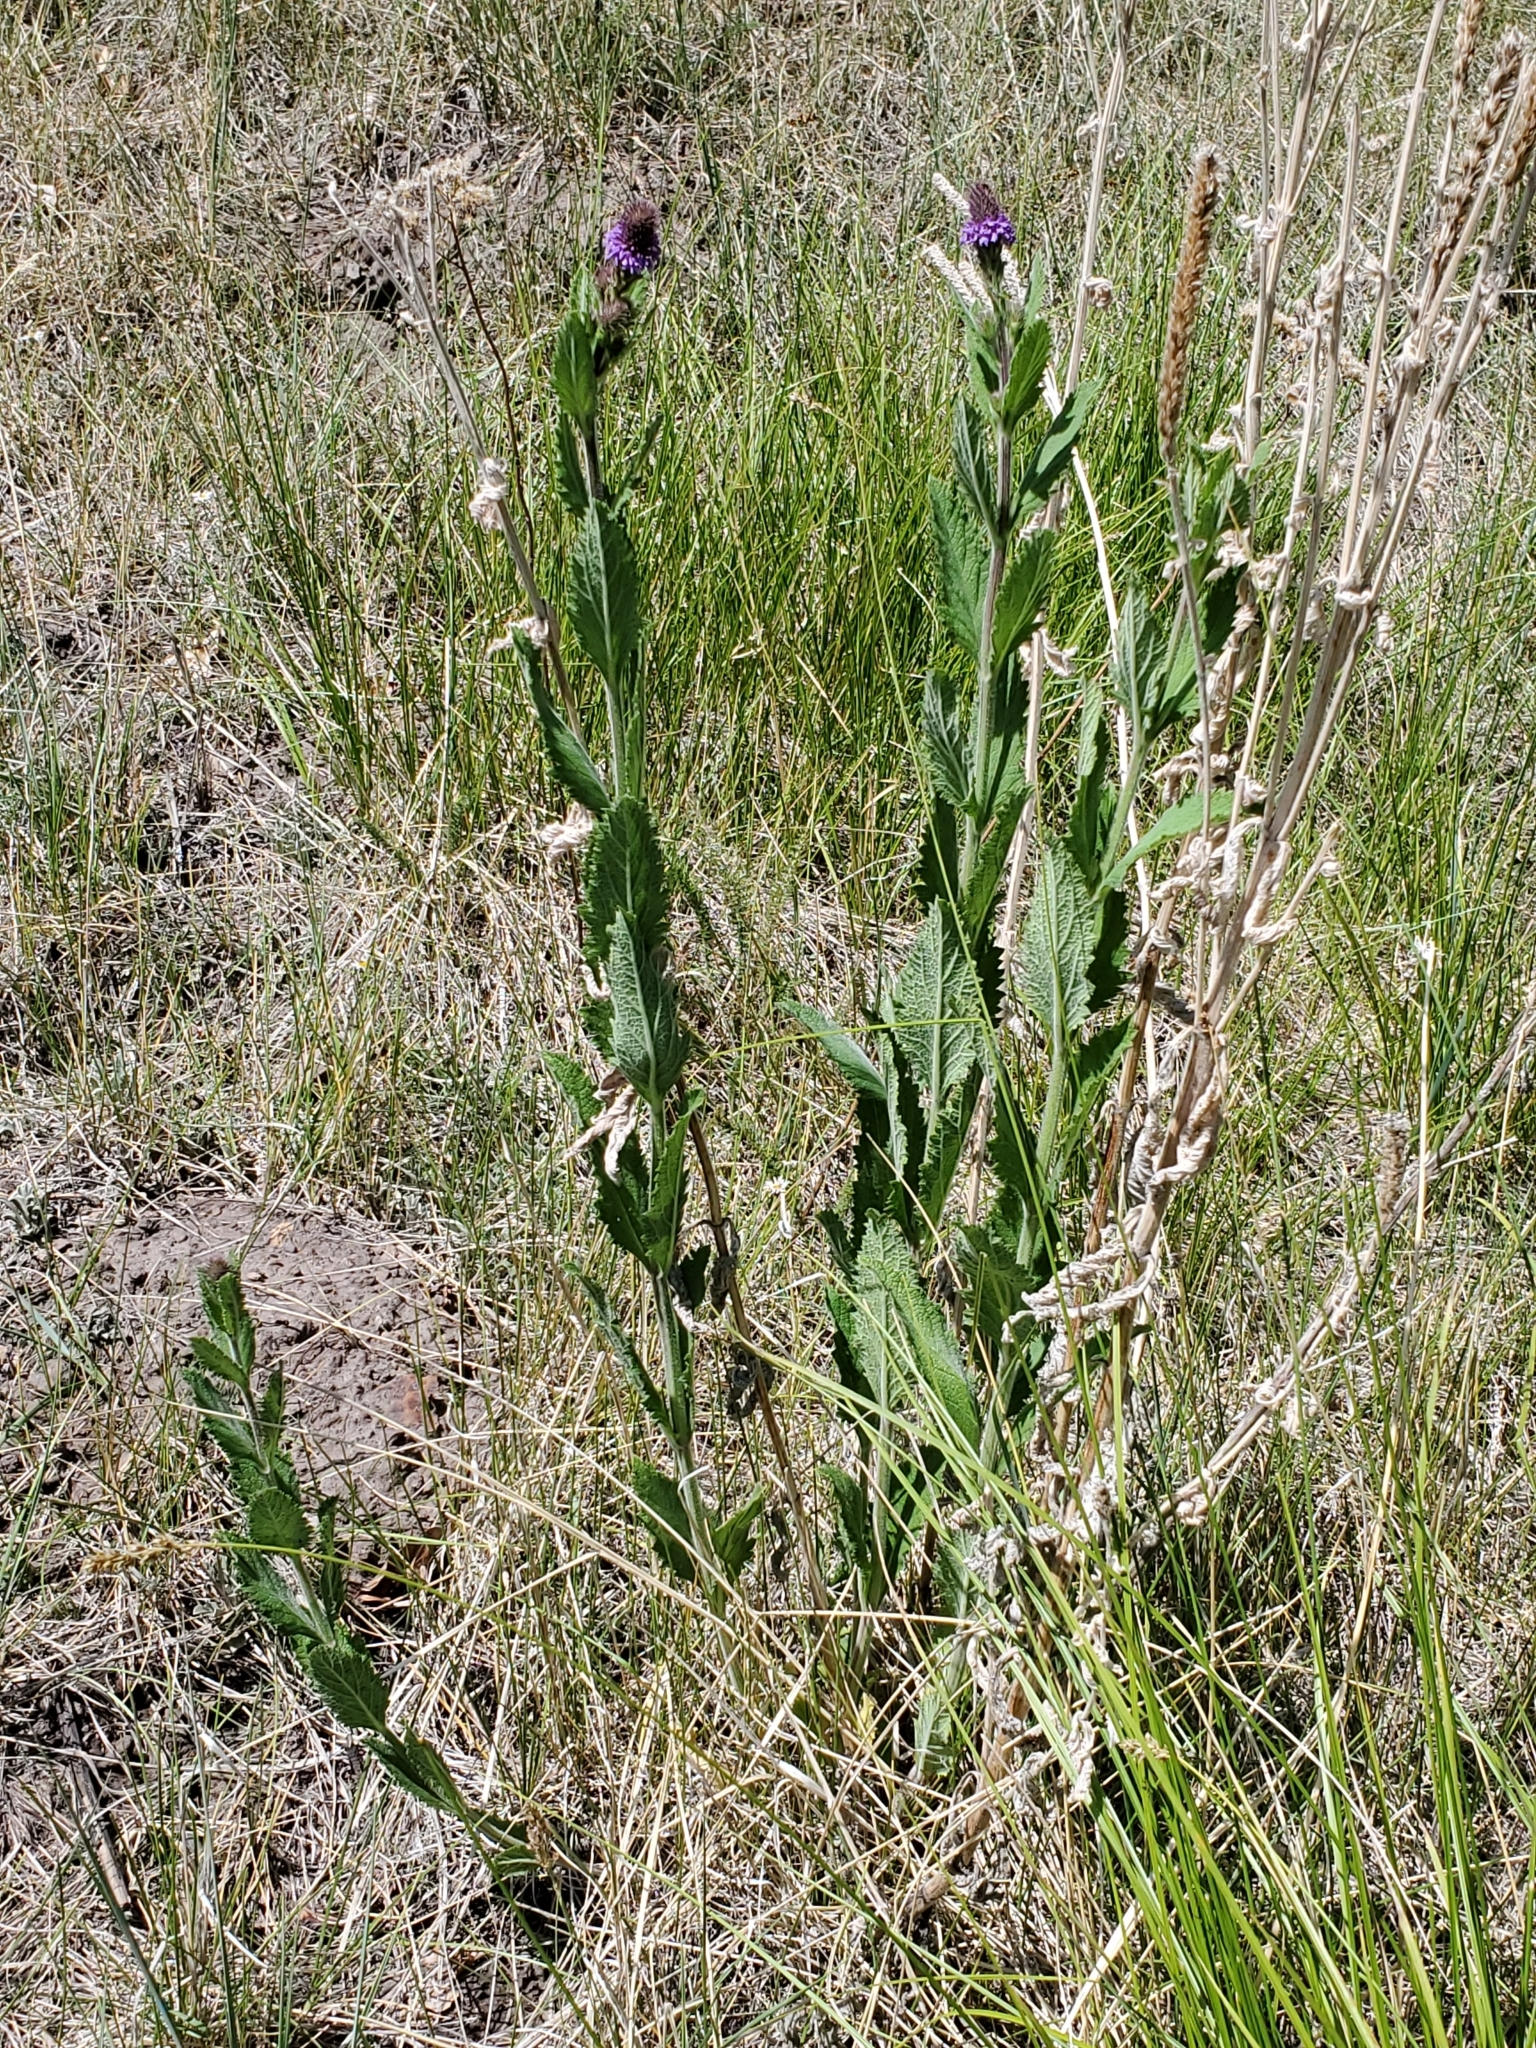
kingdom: Plantae
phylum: Tracheophyta
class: Magnoliopsida
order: Lamiales
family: Verbenaceae
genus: Verbena
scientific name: Verbena macdougalii
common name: New mexico vervain
